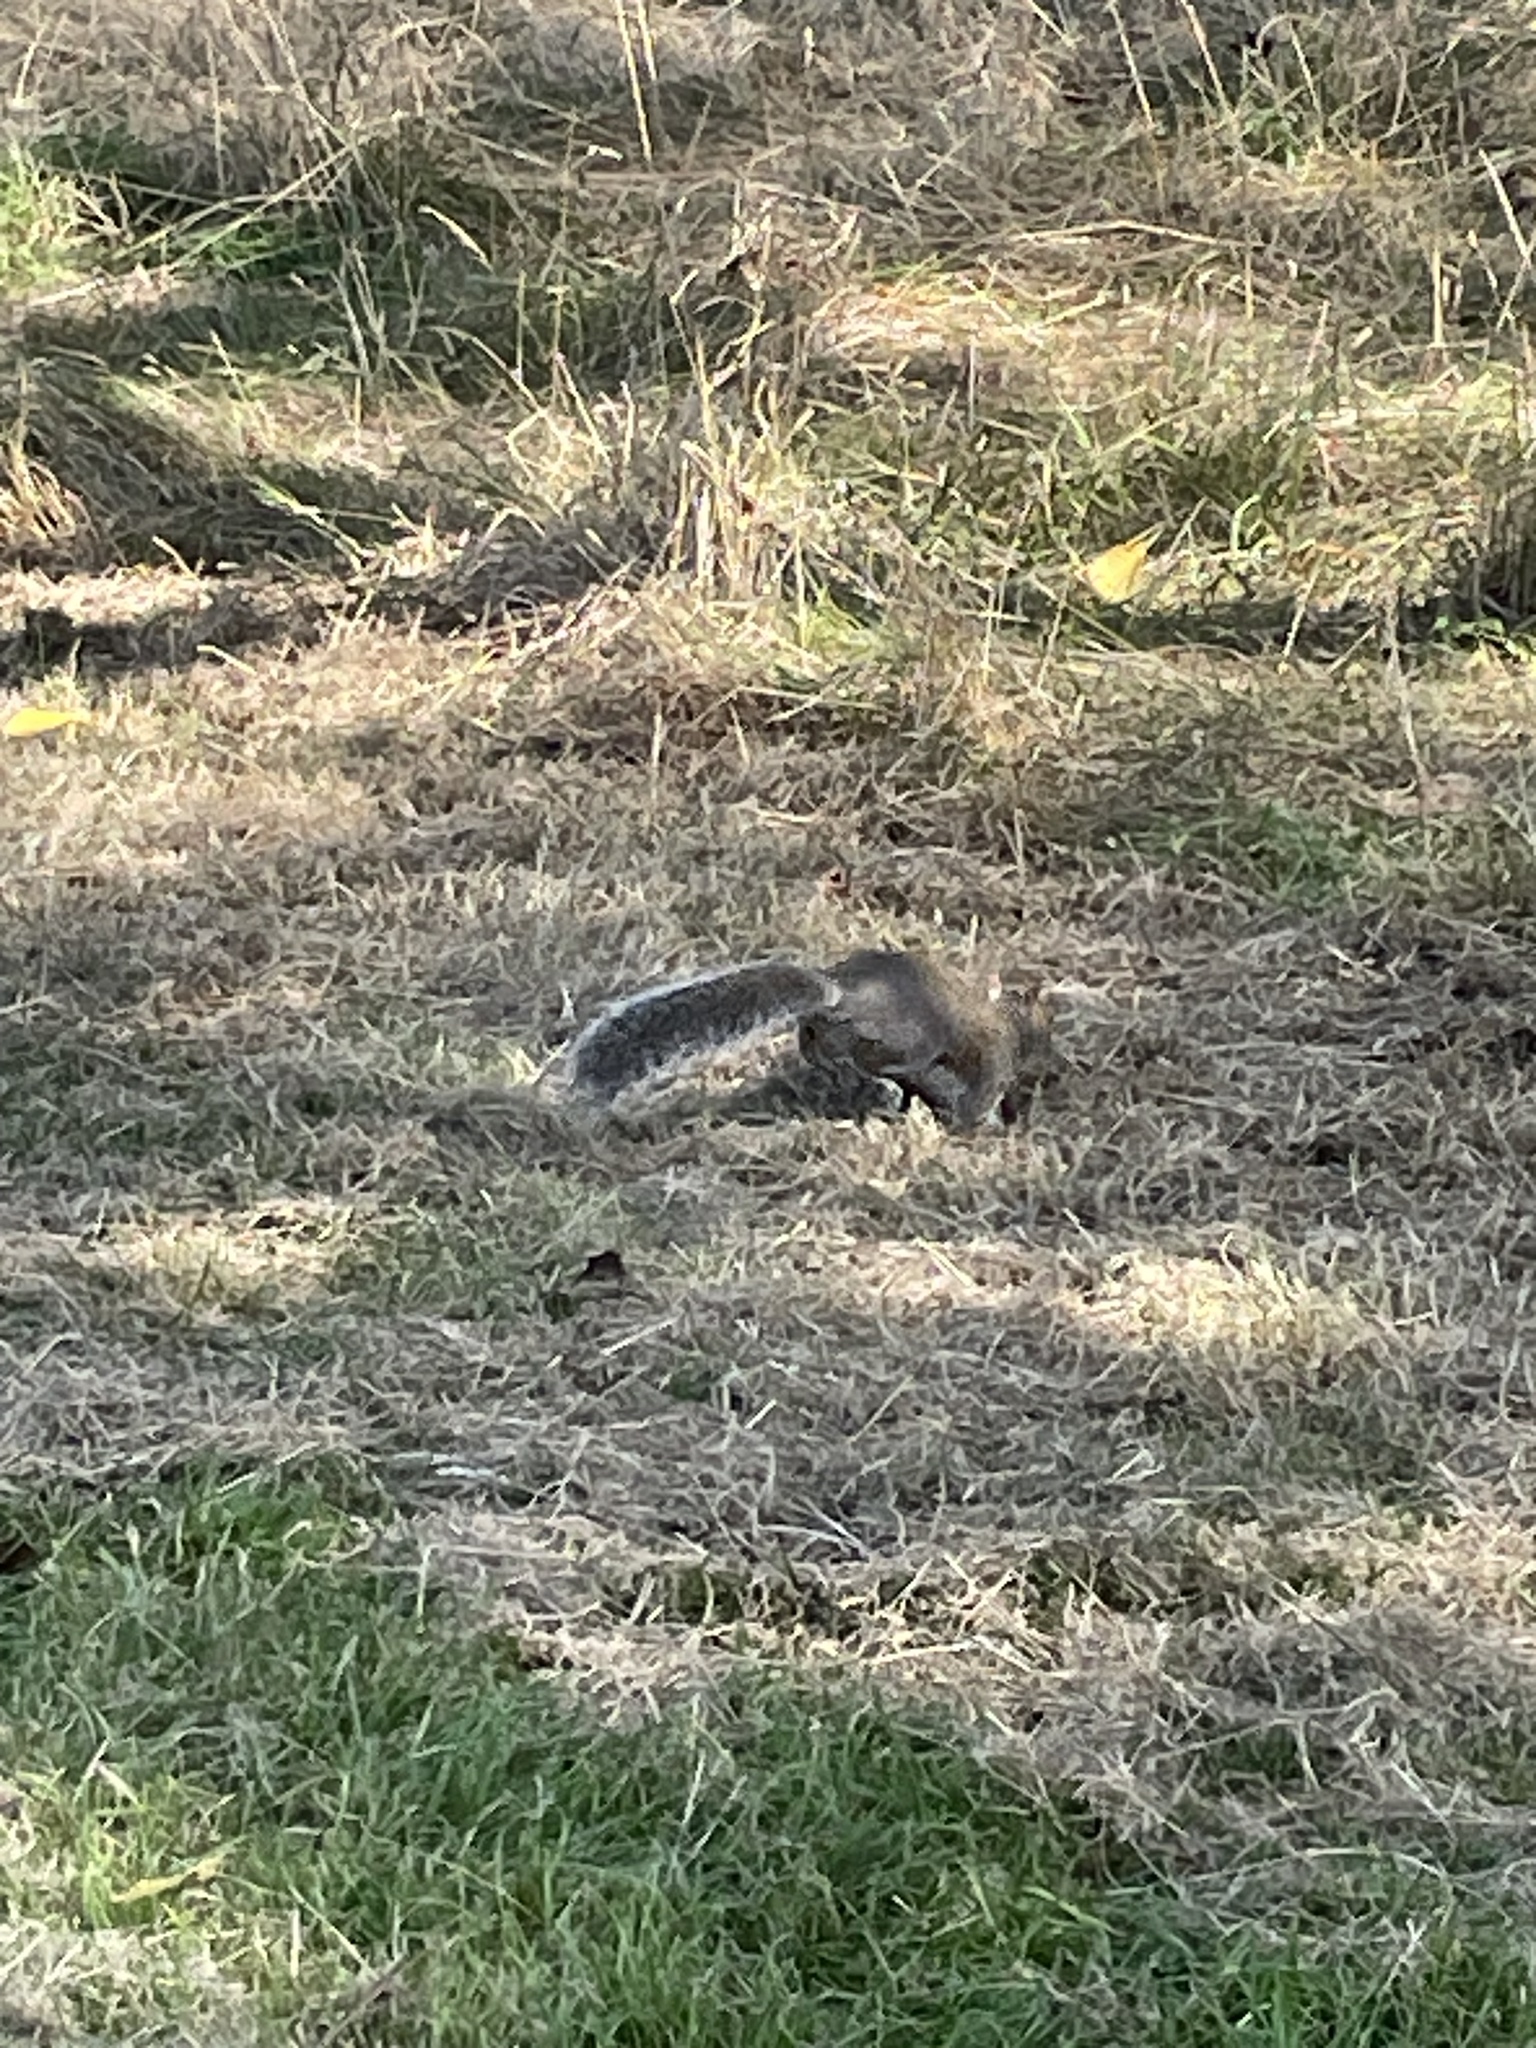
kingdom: Animalia
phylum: Chordata
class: Mammalia
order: Rodentia
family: Sciuridae
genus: Sciurus
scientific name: Sciurus carolinensis
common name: Eastern gray squirrel
